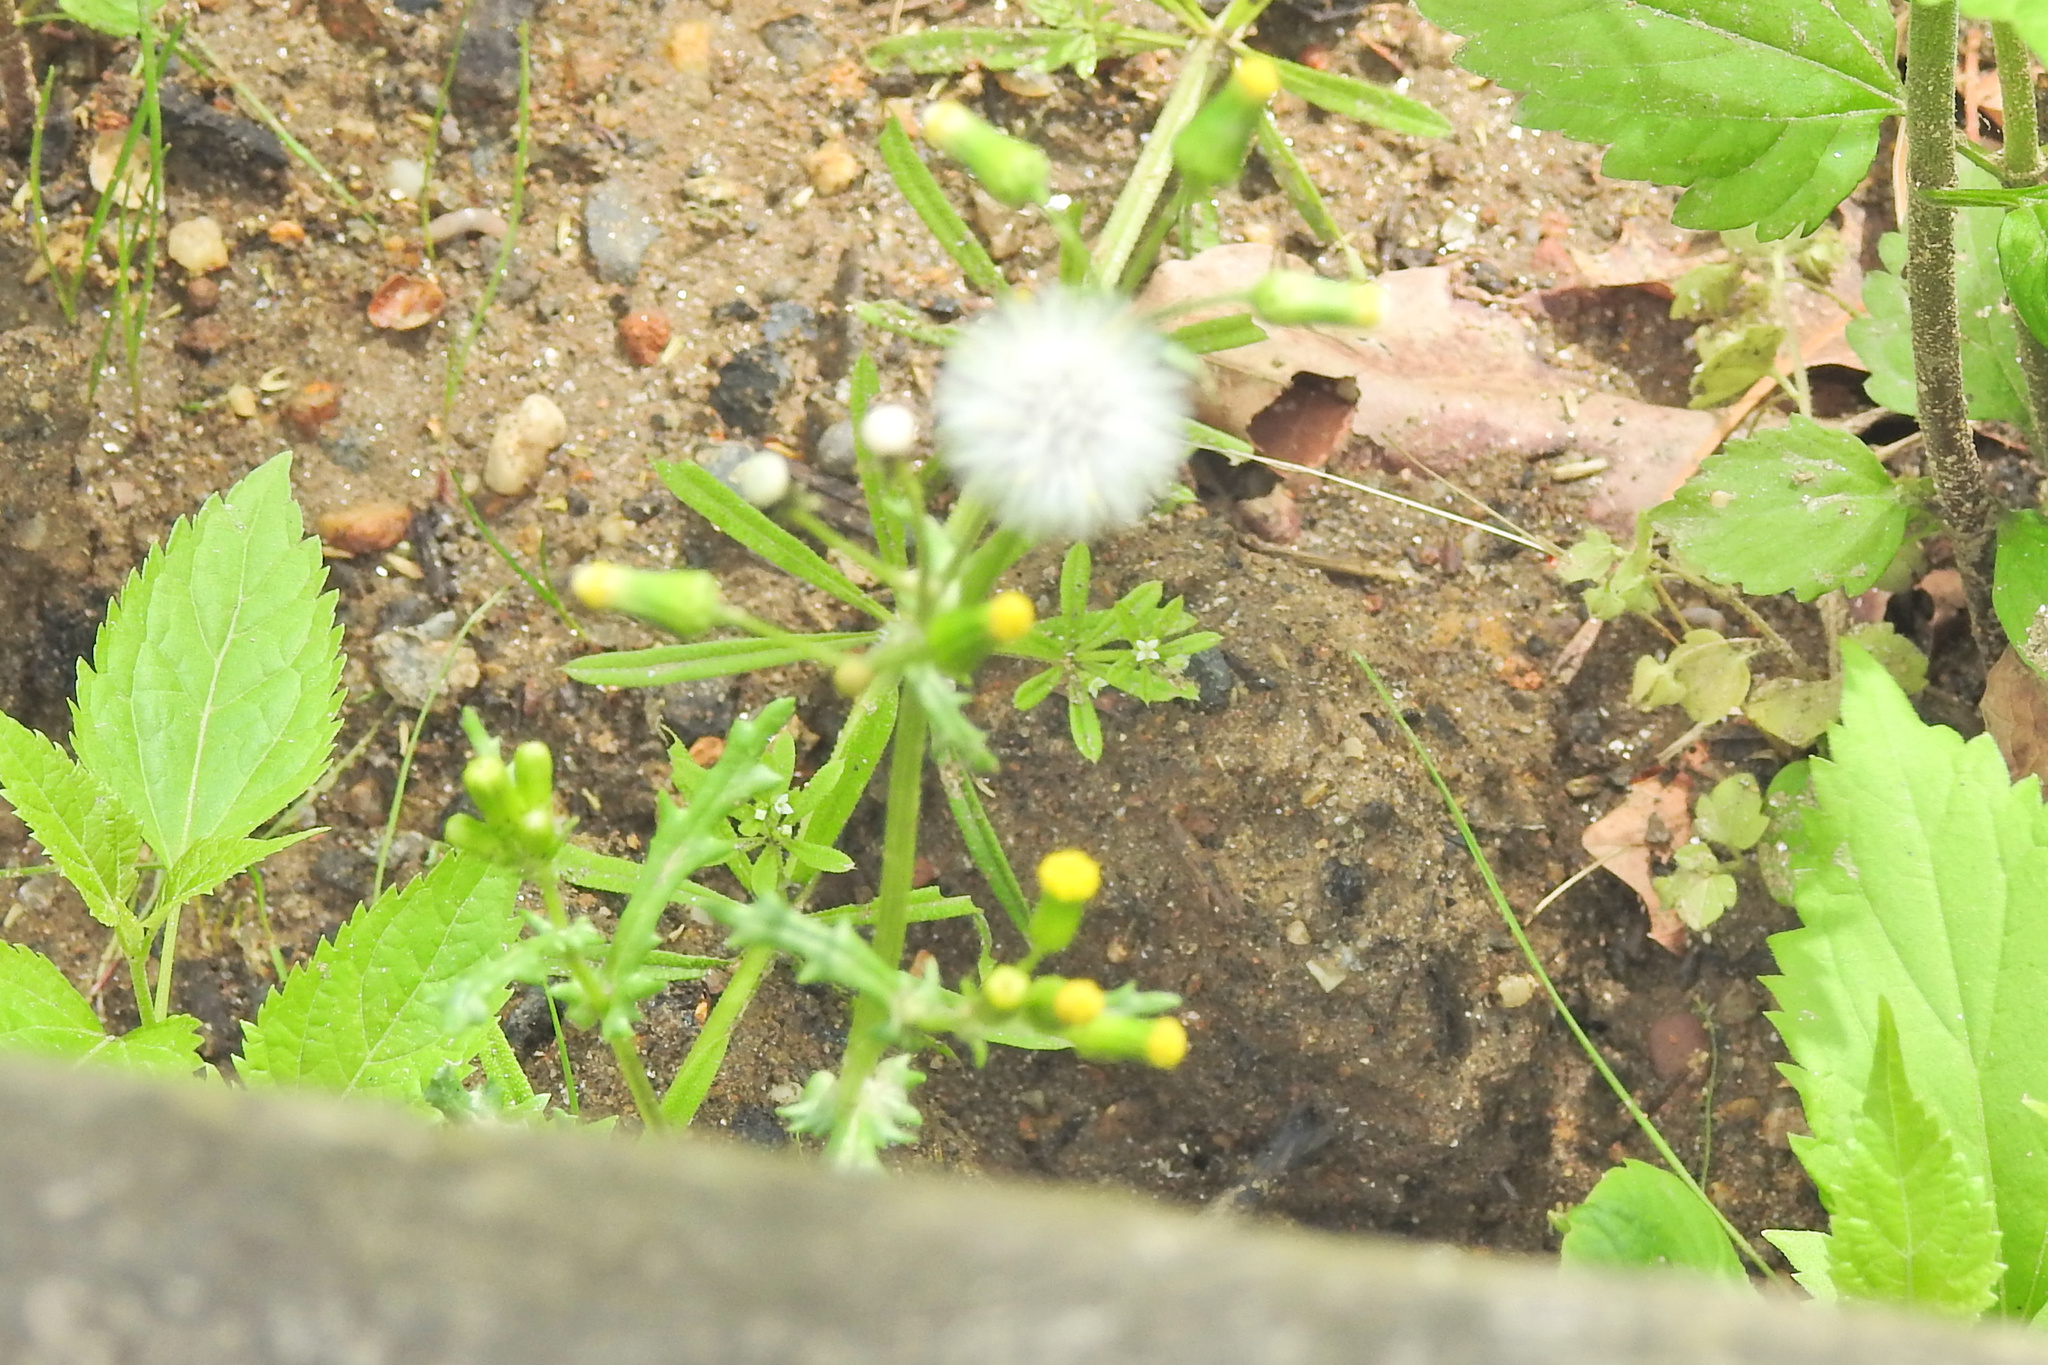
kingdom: Plantae
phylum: Tracheophyta
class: Magnoliopsida
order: Asterales
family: Asteraceae
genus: Senecio
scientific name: Senecio vulgaris
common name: Old-man-in-the-spring
